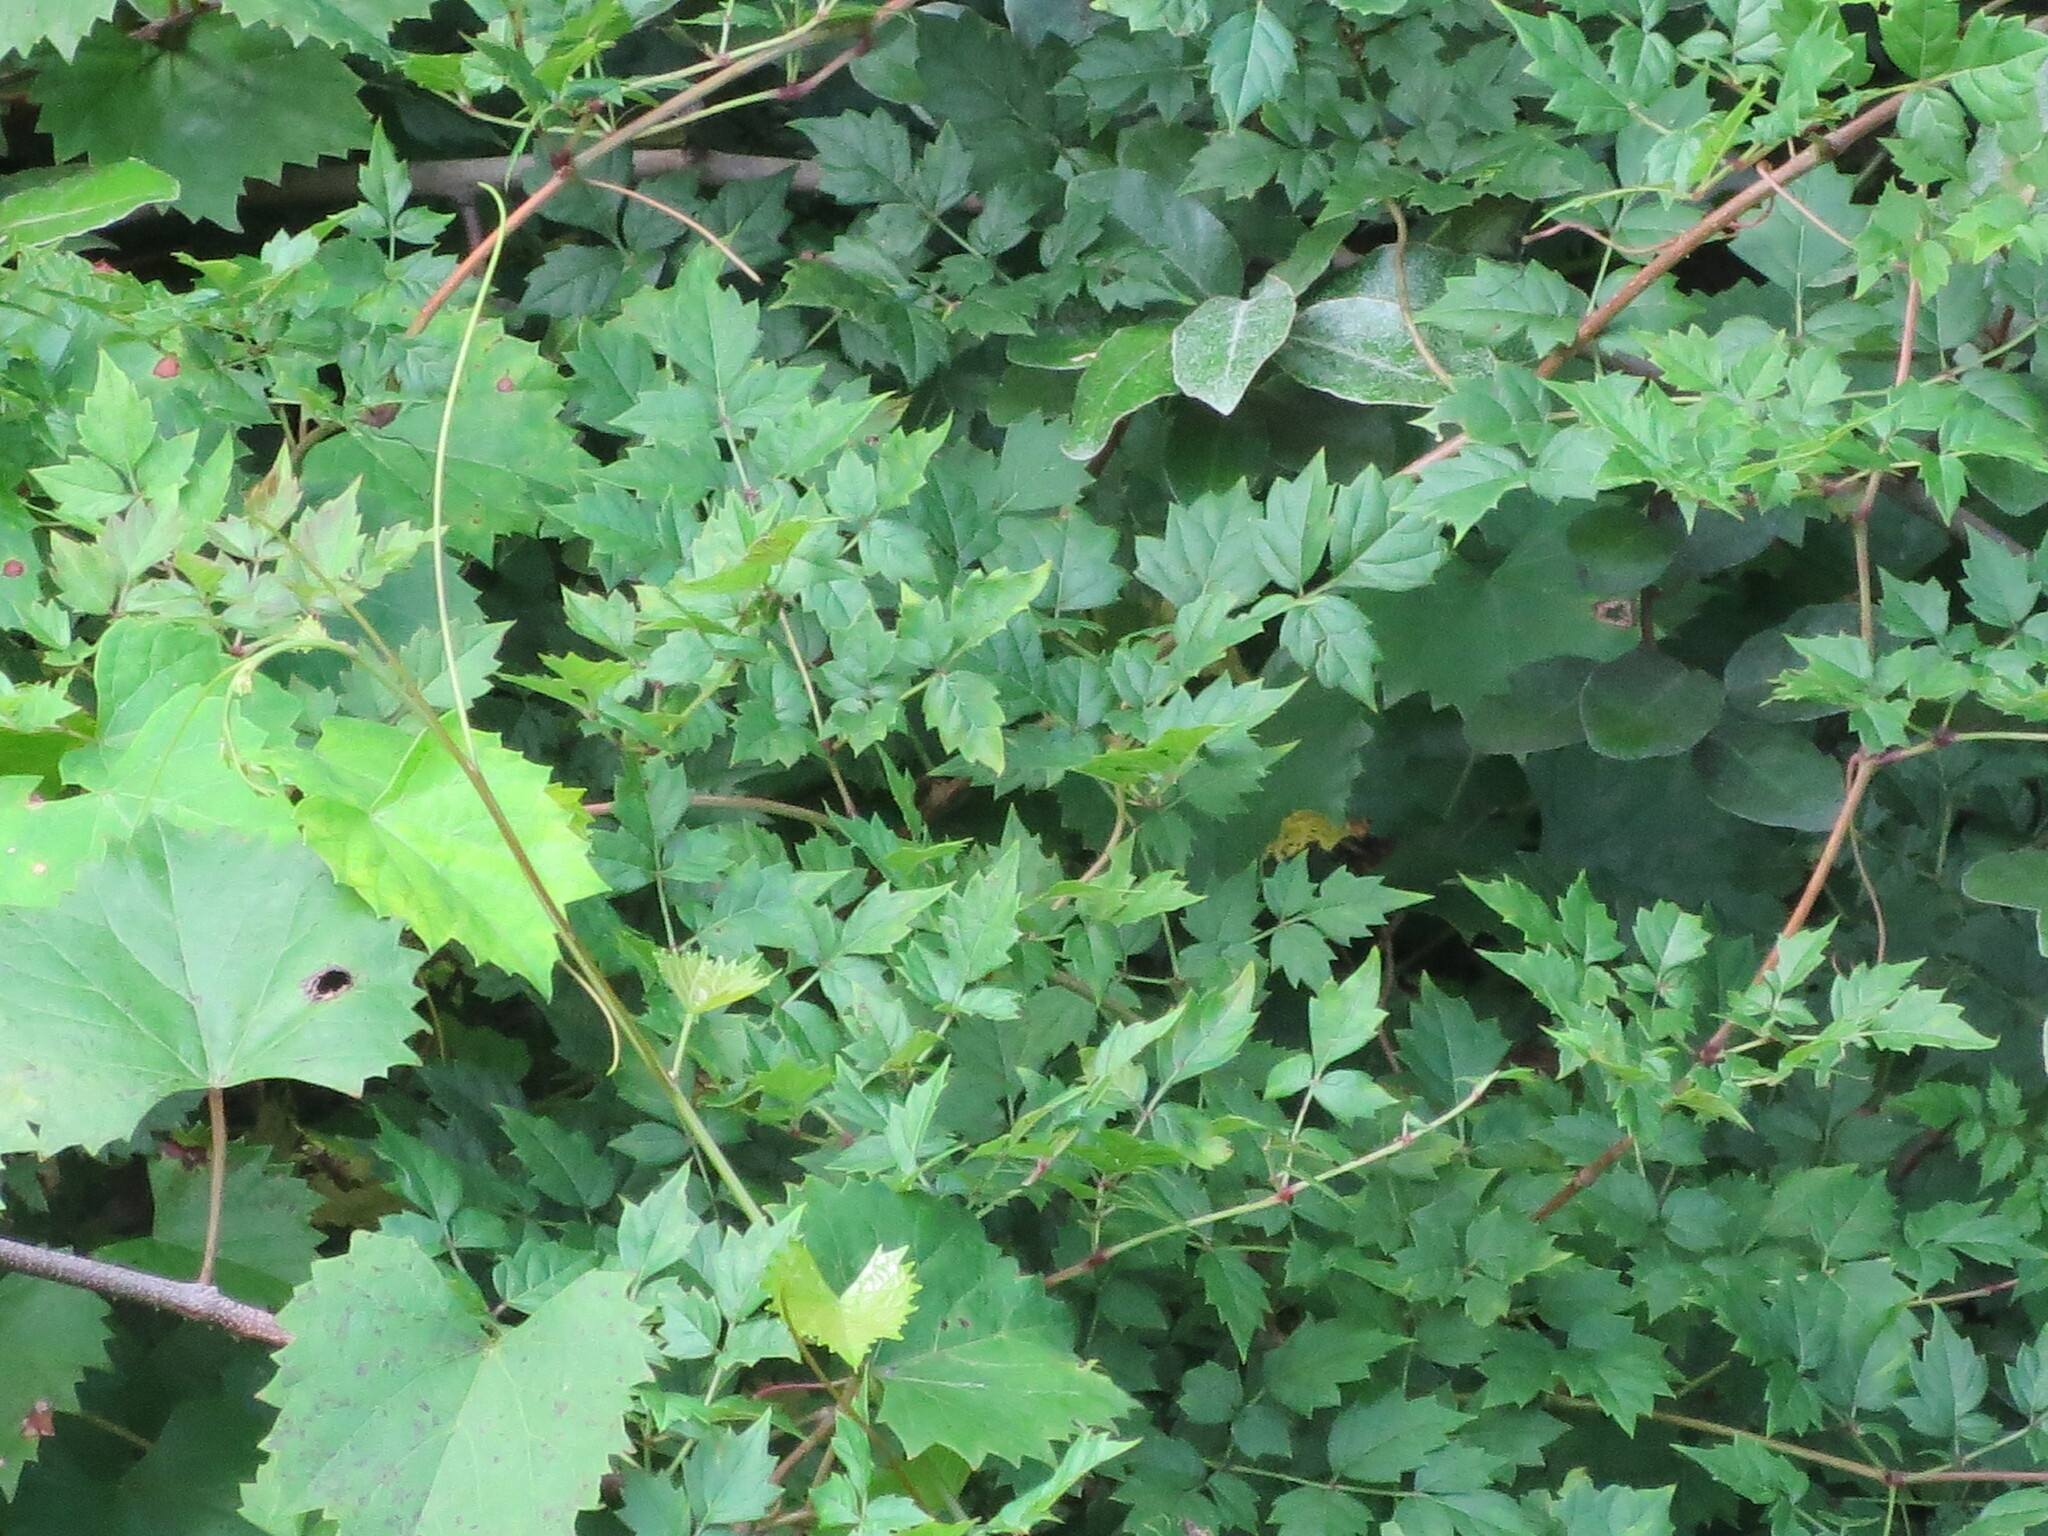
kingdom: Plantae
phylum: Tracheophyta
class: Magnoliopsida
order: Vitales
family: Vitaceae
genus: Nekemias
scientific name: Nekemias arborea
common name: Peppervine
